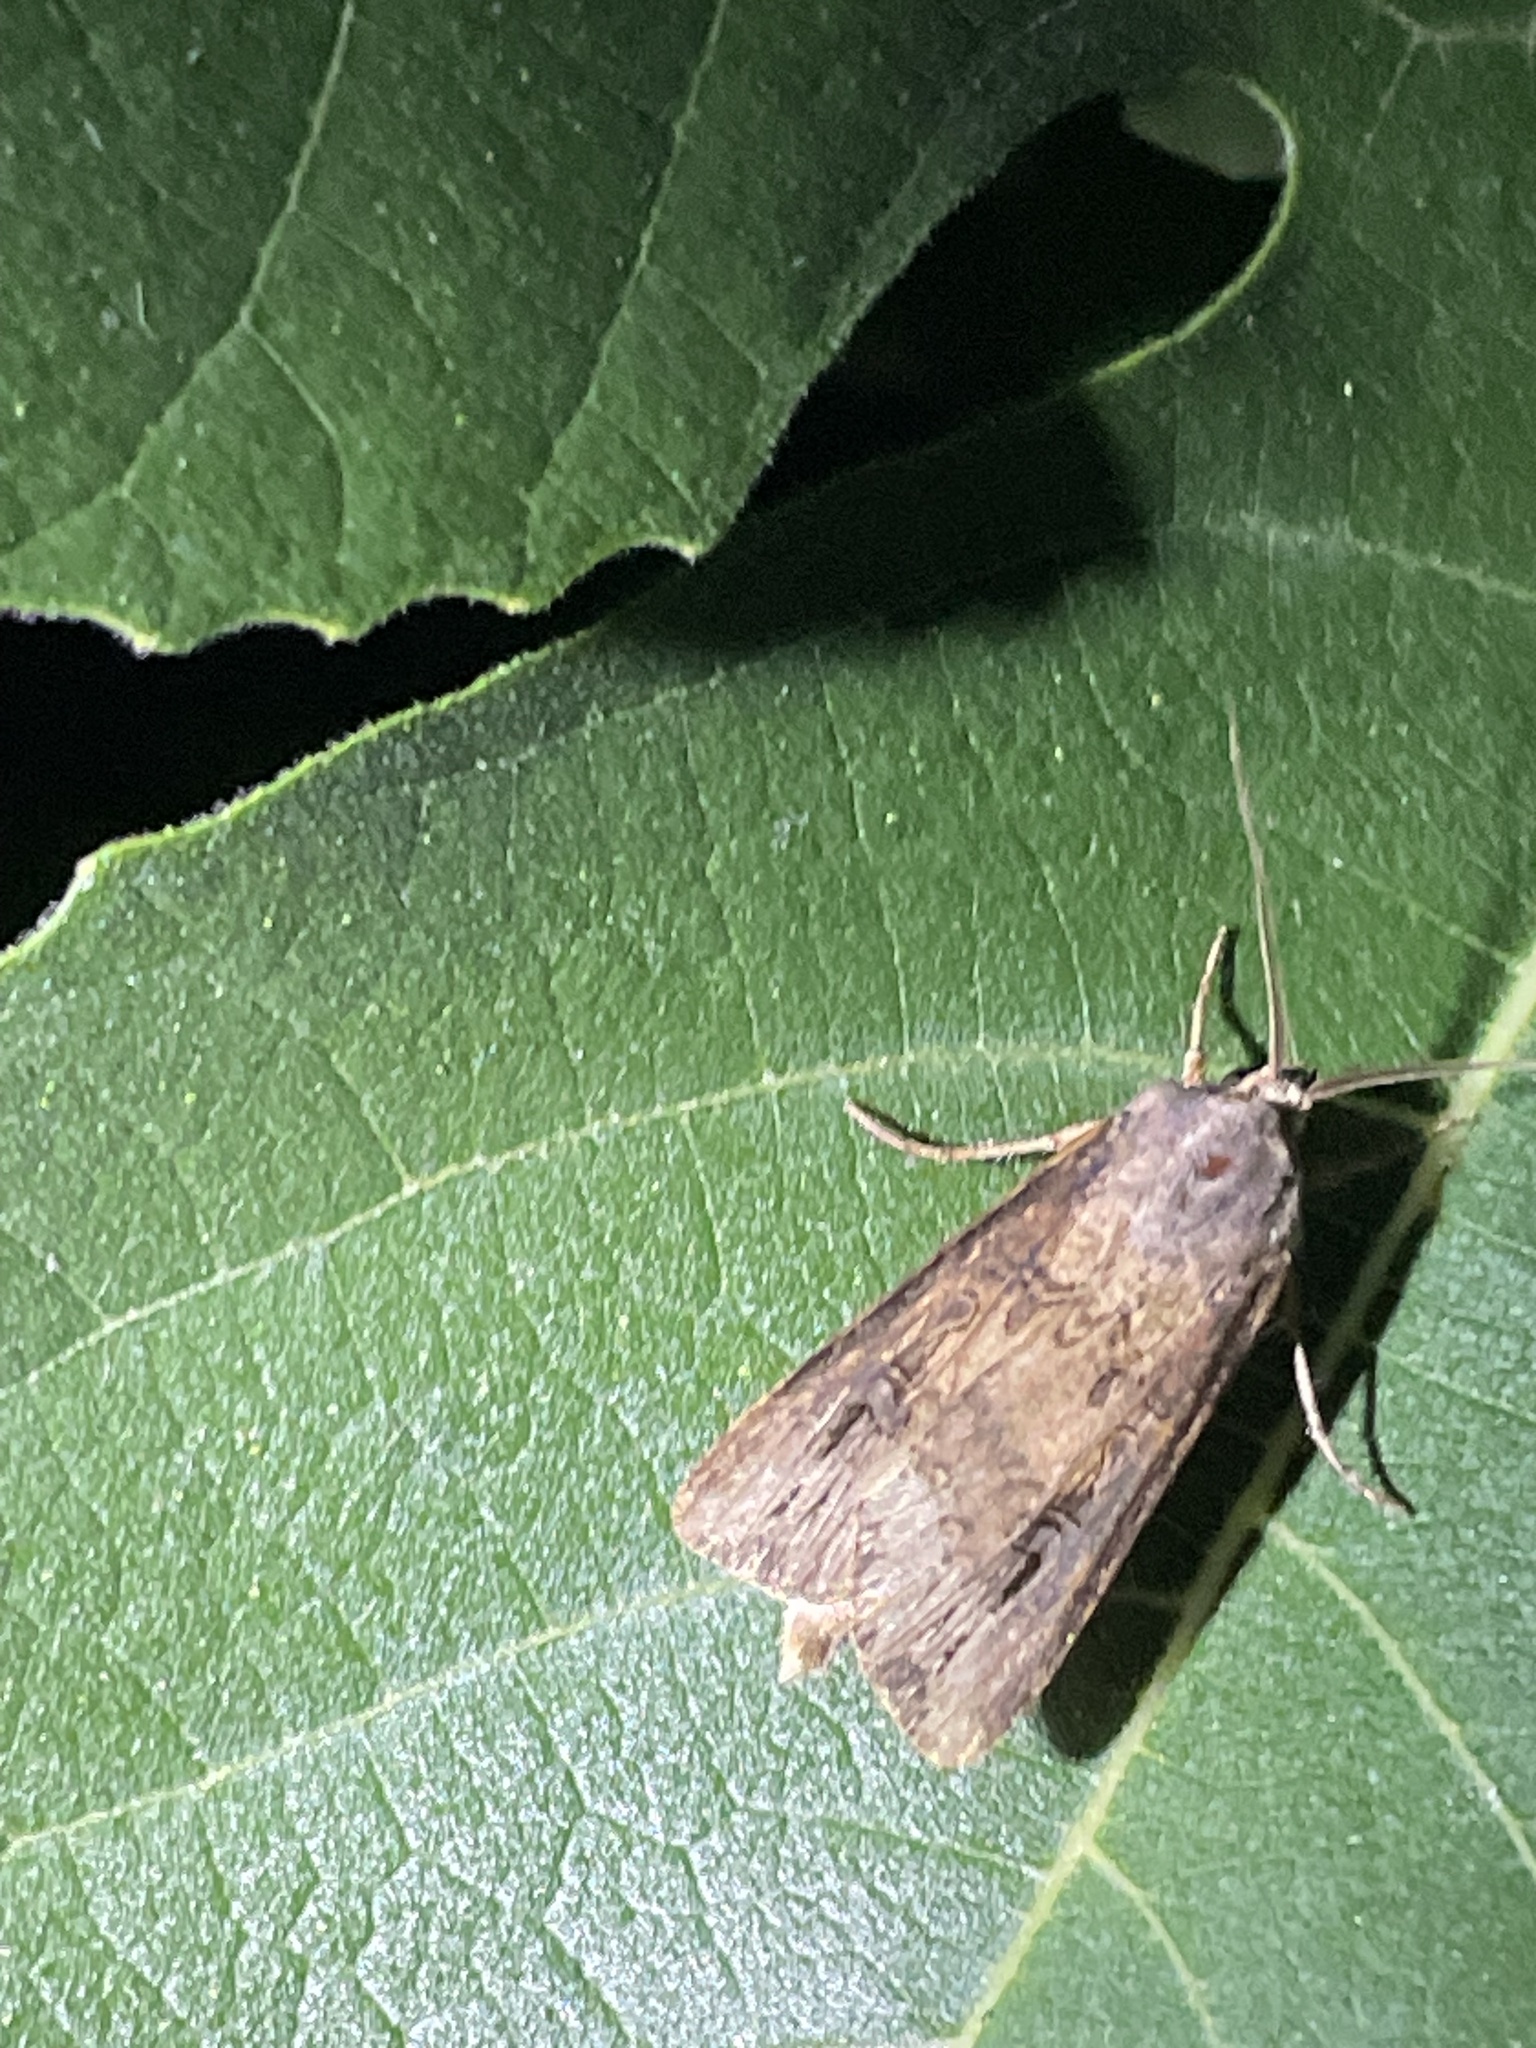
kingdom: Animalia
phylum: Arthropoda
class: Insecta
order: Lepidoptera
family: Noctuidae
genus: Agrotis
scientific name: Agrotis ipsilon
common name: Dark sword-grass
